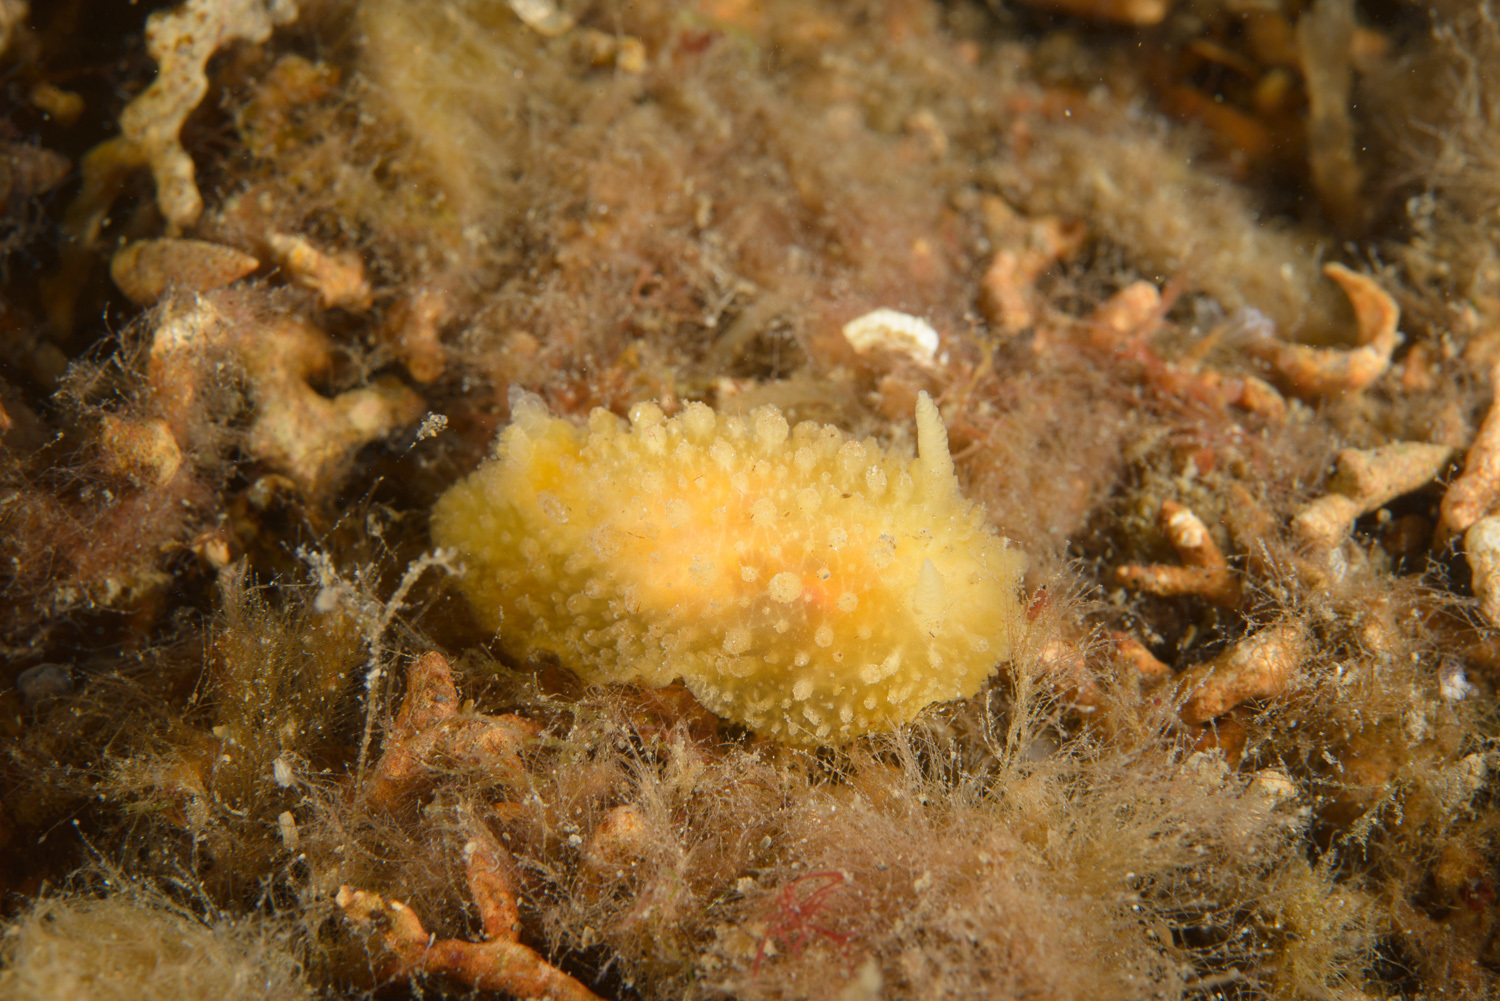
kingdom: Animalia
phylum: Mollusca
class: Gastropoda
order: Nudibranchia
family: Dorididae
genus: Doris
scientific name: Doris ocelligera
